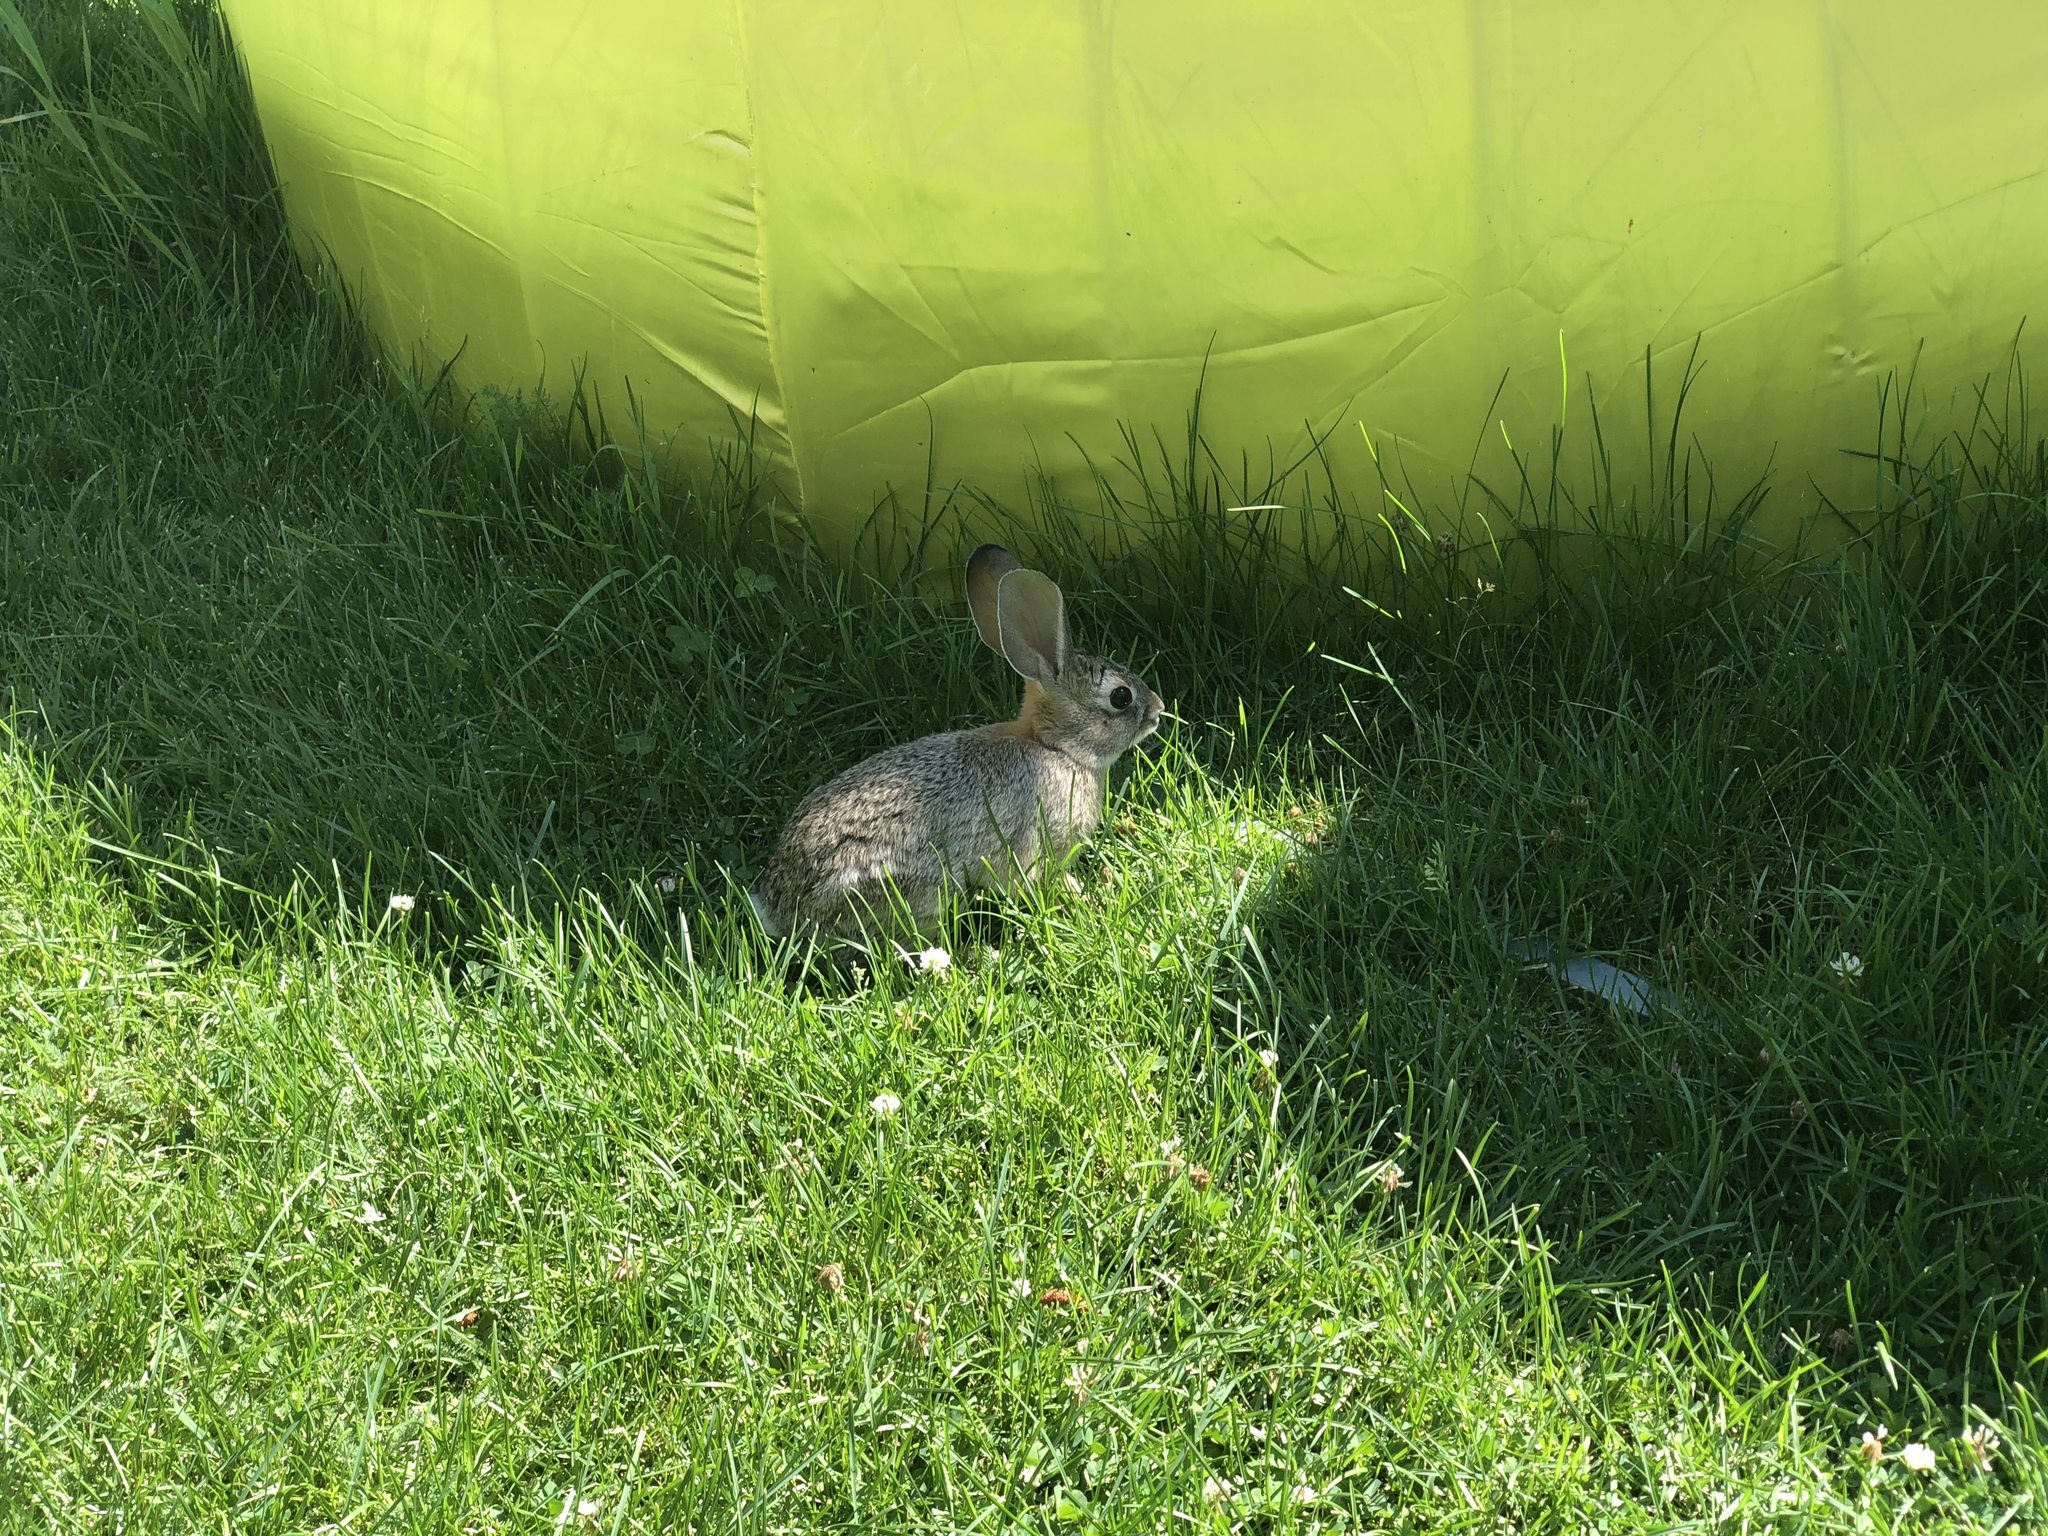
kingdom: Animalia
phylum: Chordata
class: Mammalia
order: Lagomorpha
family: Leporidae
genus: Sylvilagus
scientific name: Sylvilagus audubonii
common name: Desert cottontail
